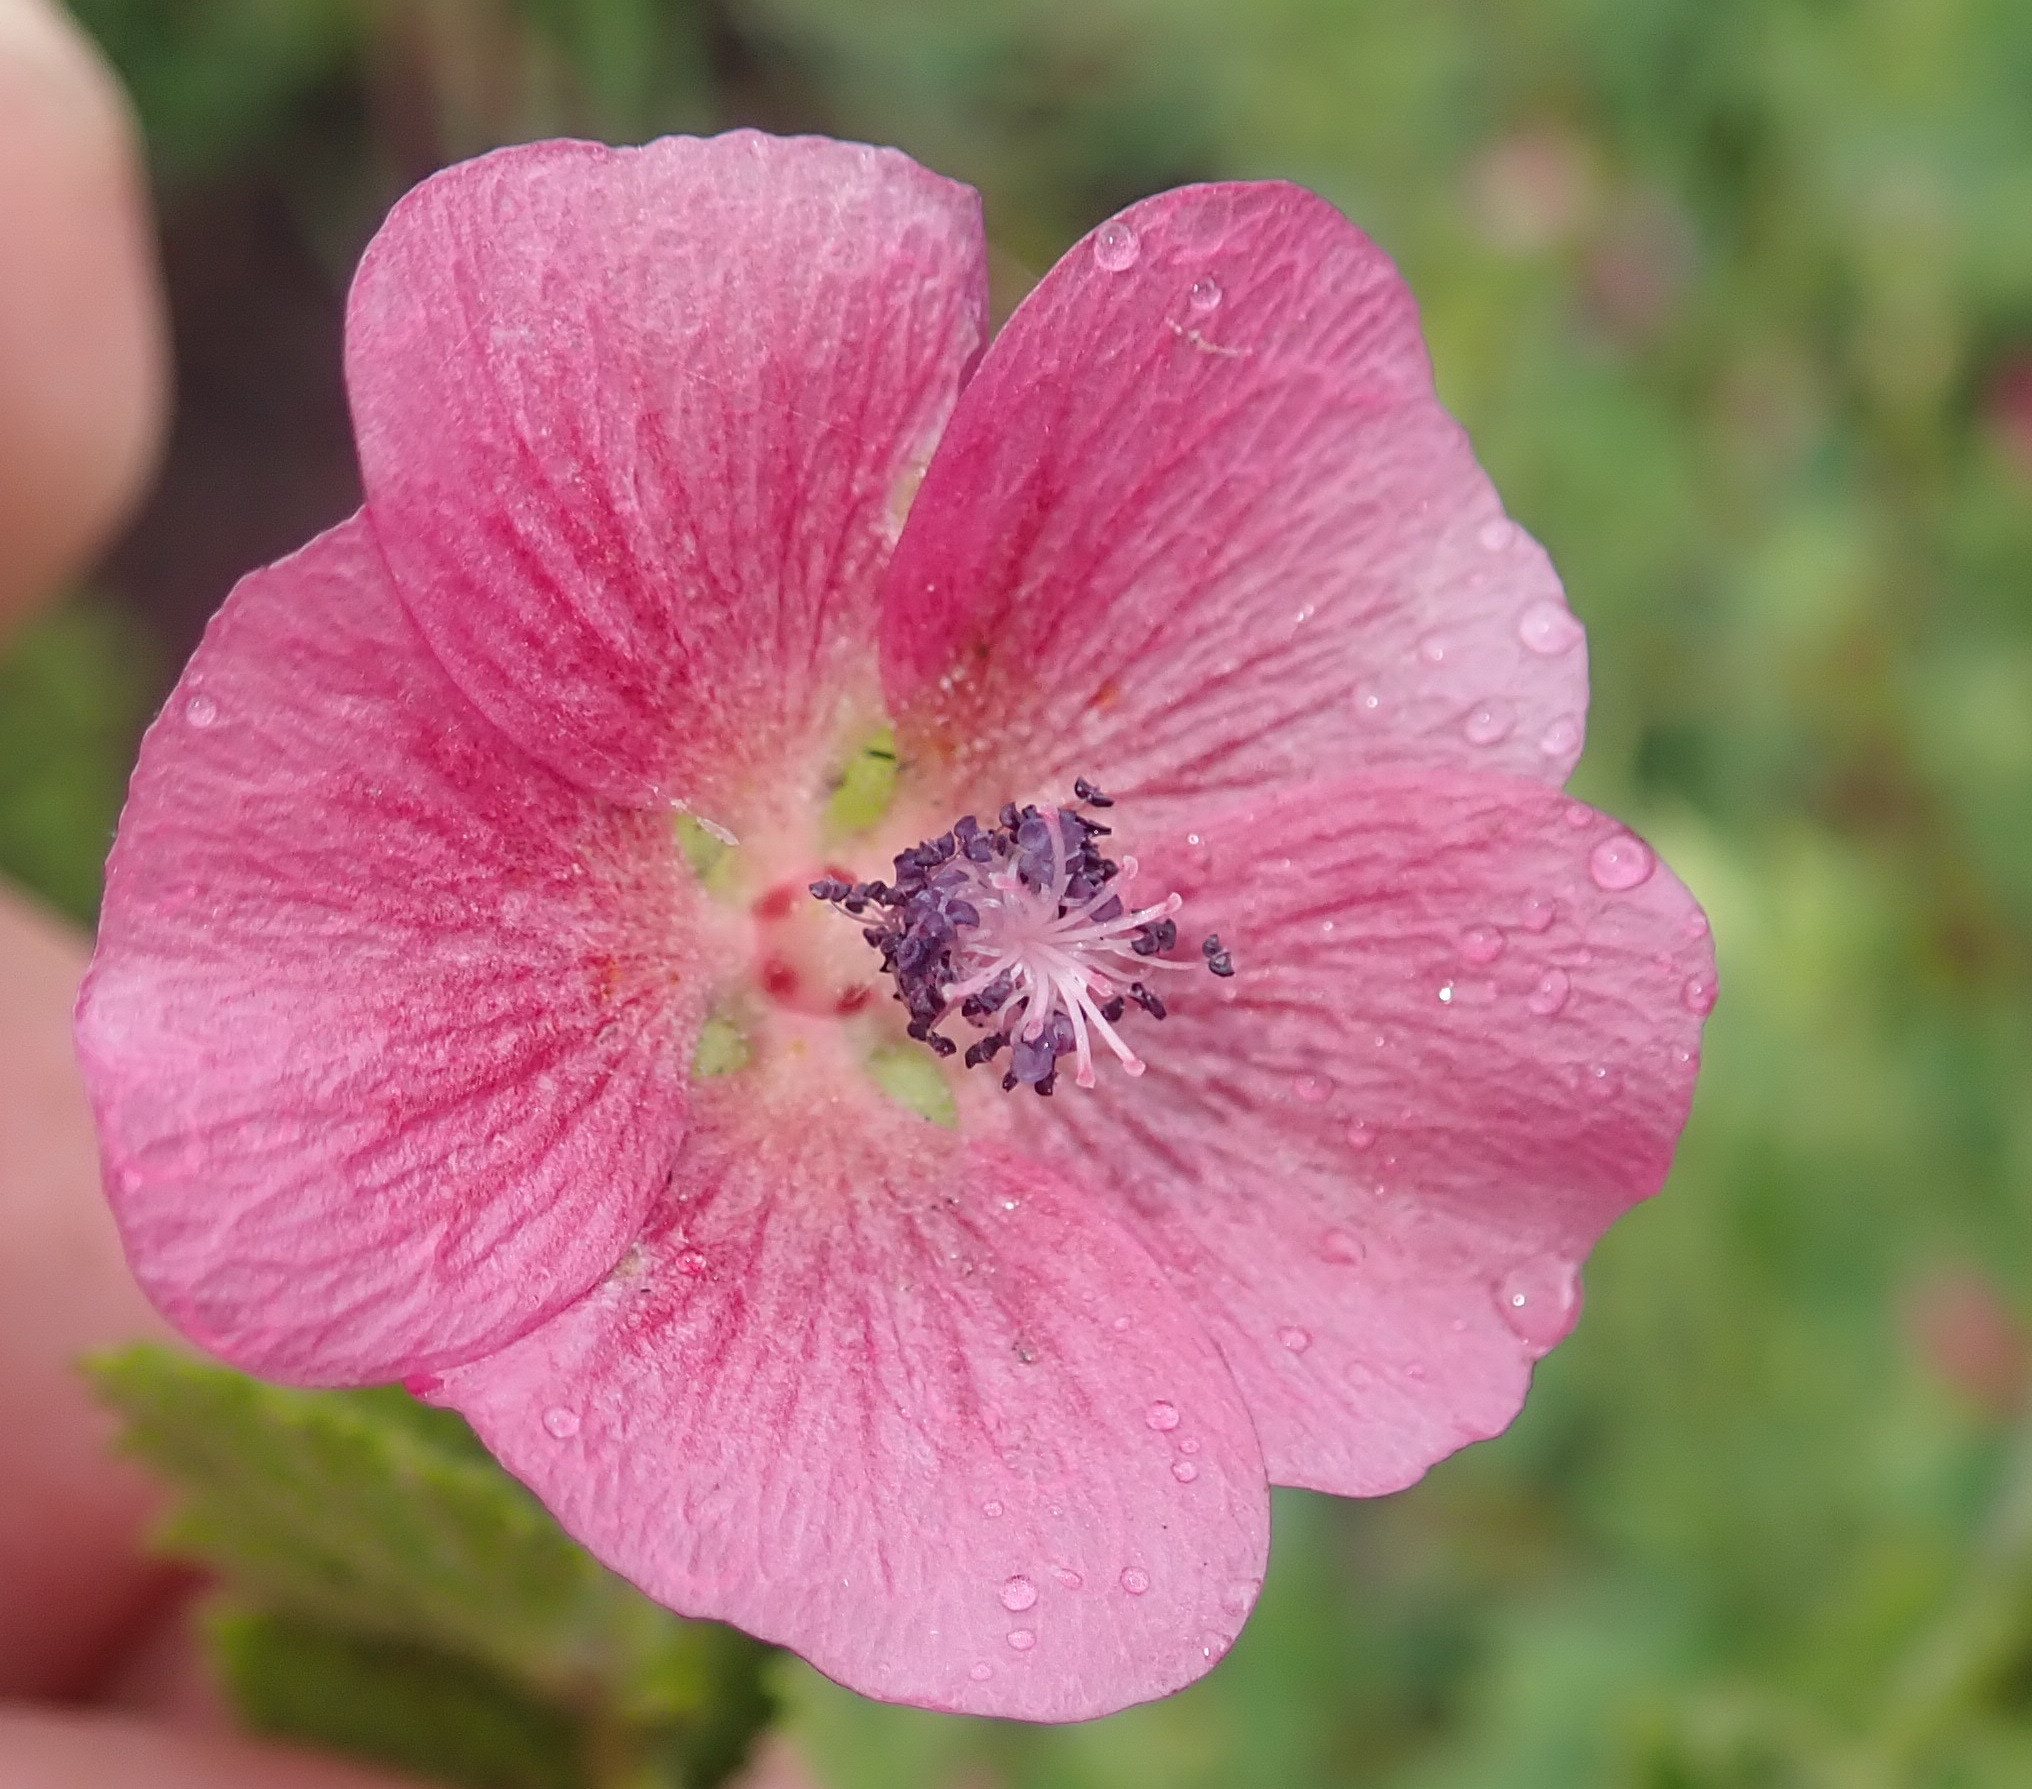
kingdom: Plantae
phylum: Tracheophyta
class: Magnoliopsida
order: Malvales
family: Malvaceae
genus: Anisodontea
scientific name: Anisodontea scabrosa
